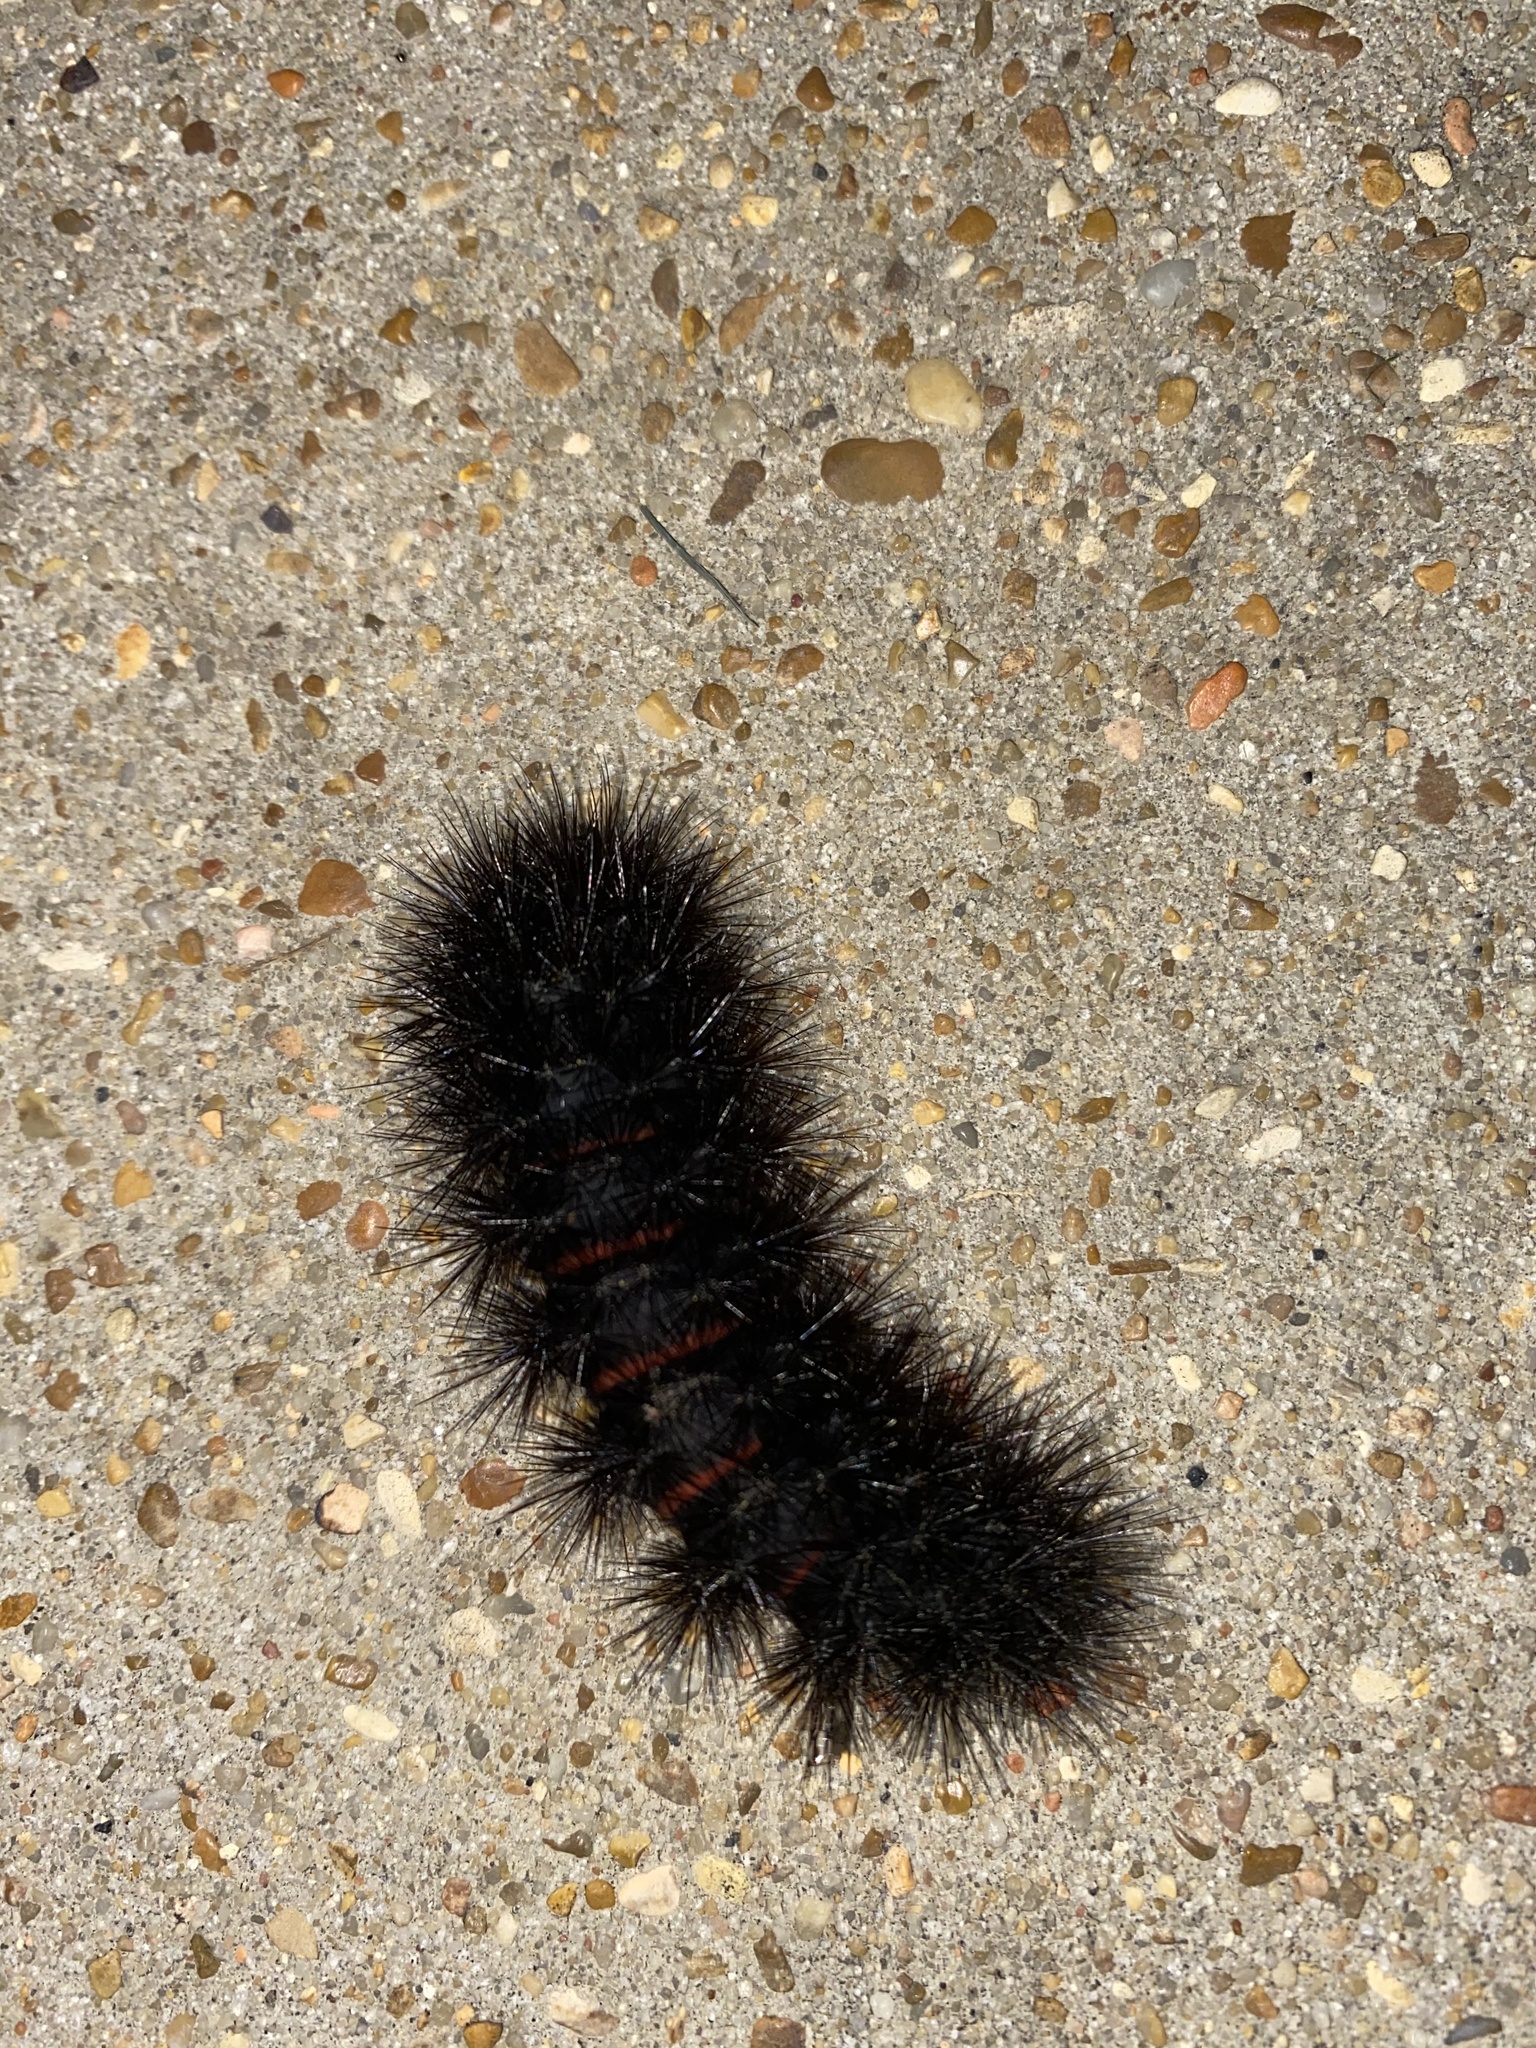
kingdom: Animalia
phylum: Arthropoda
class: Insecta
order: Lepidoptera
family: Erebidae
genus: Hypercompe
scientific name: Hypercompe scribonia
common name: Giant leopard moth
